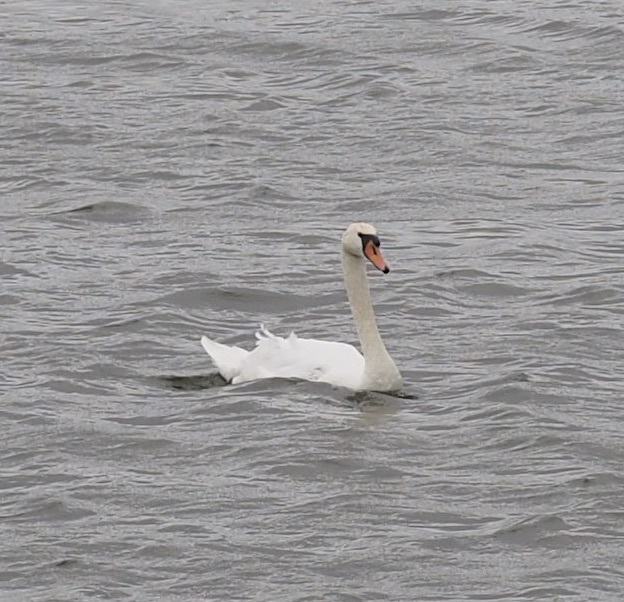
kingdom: Animalia
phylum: Chordata
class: Aves
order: Anseriformes
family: Anatidae
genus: Cygnus
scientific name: Cygnus olor
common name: Mute swan
